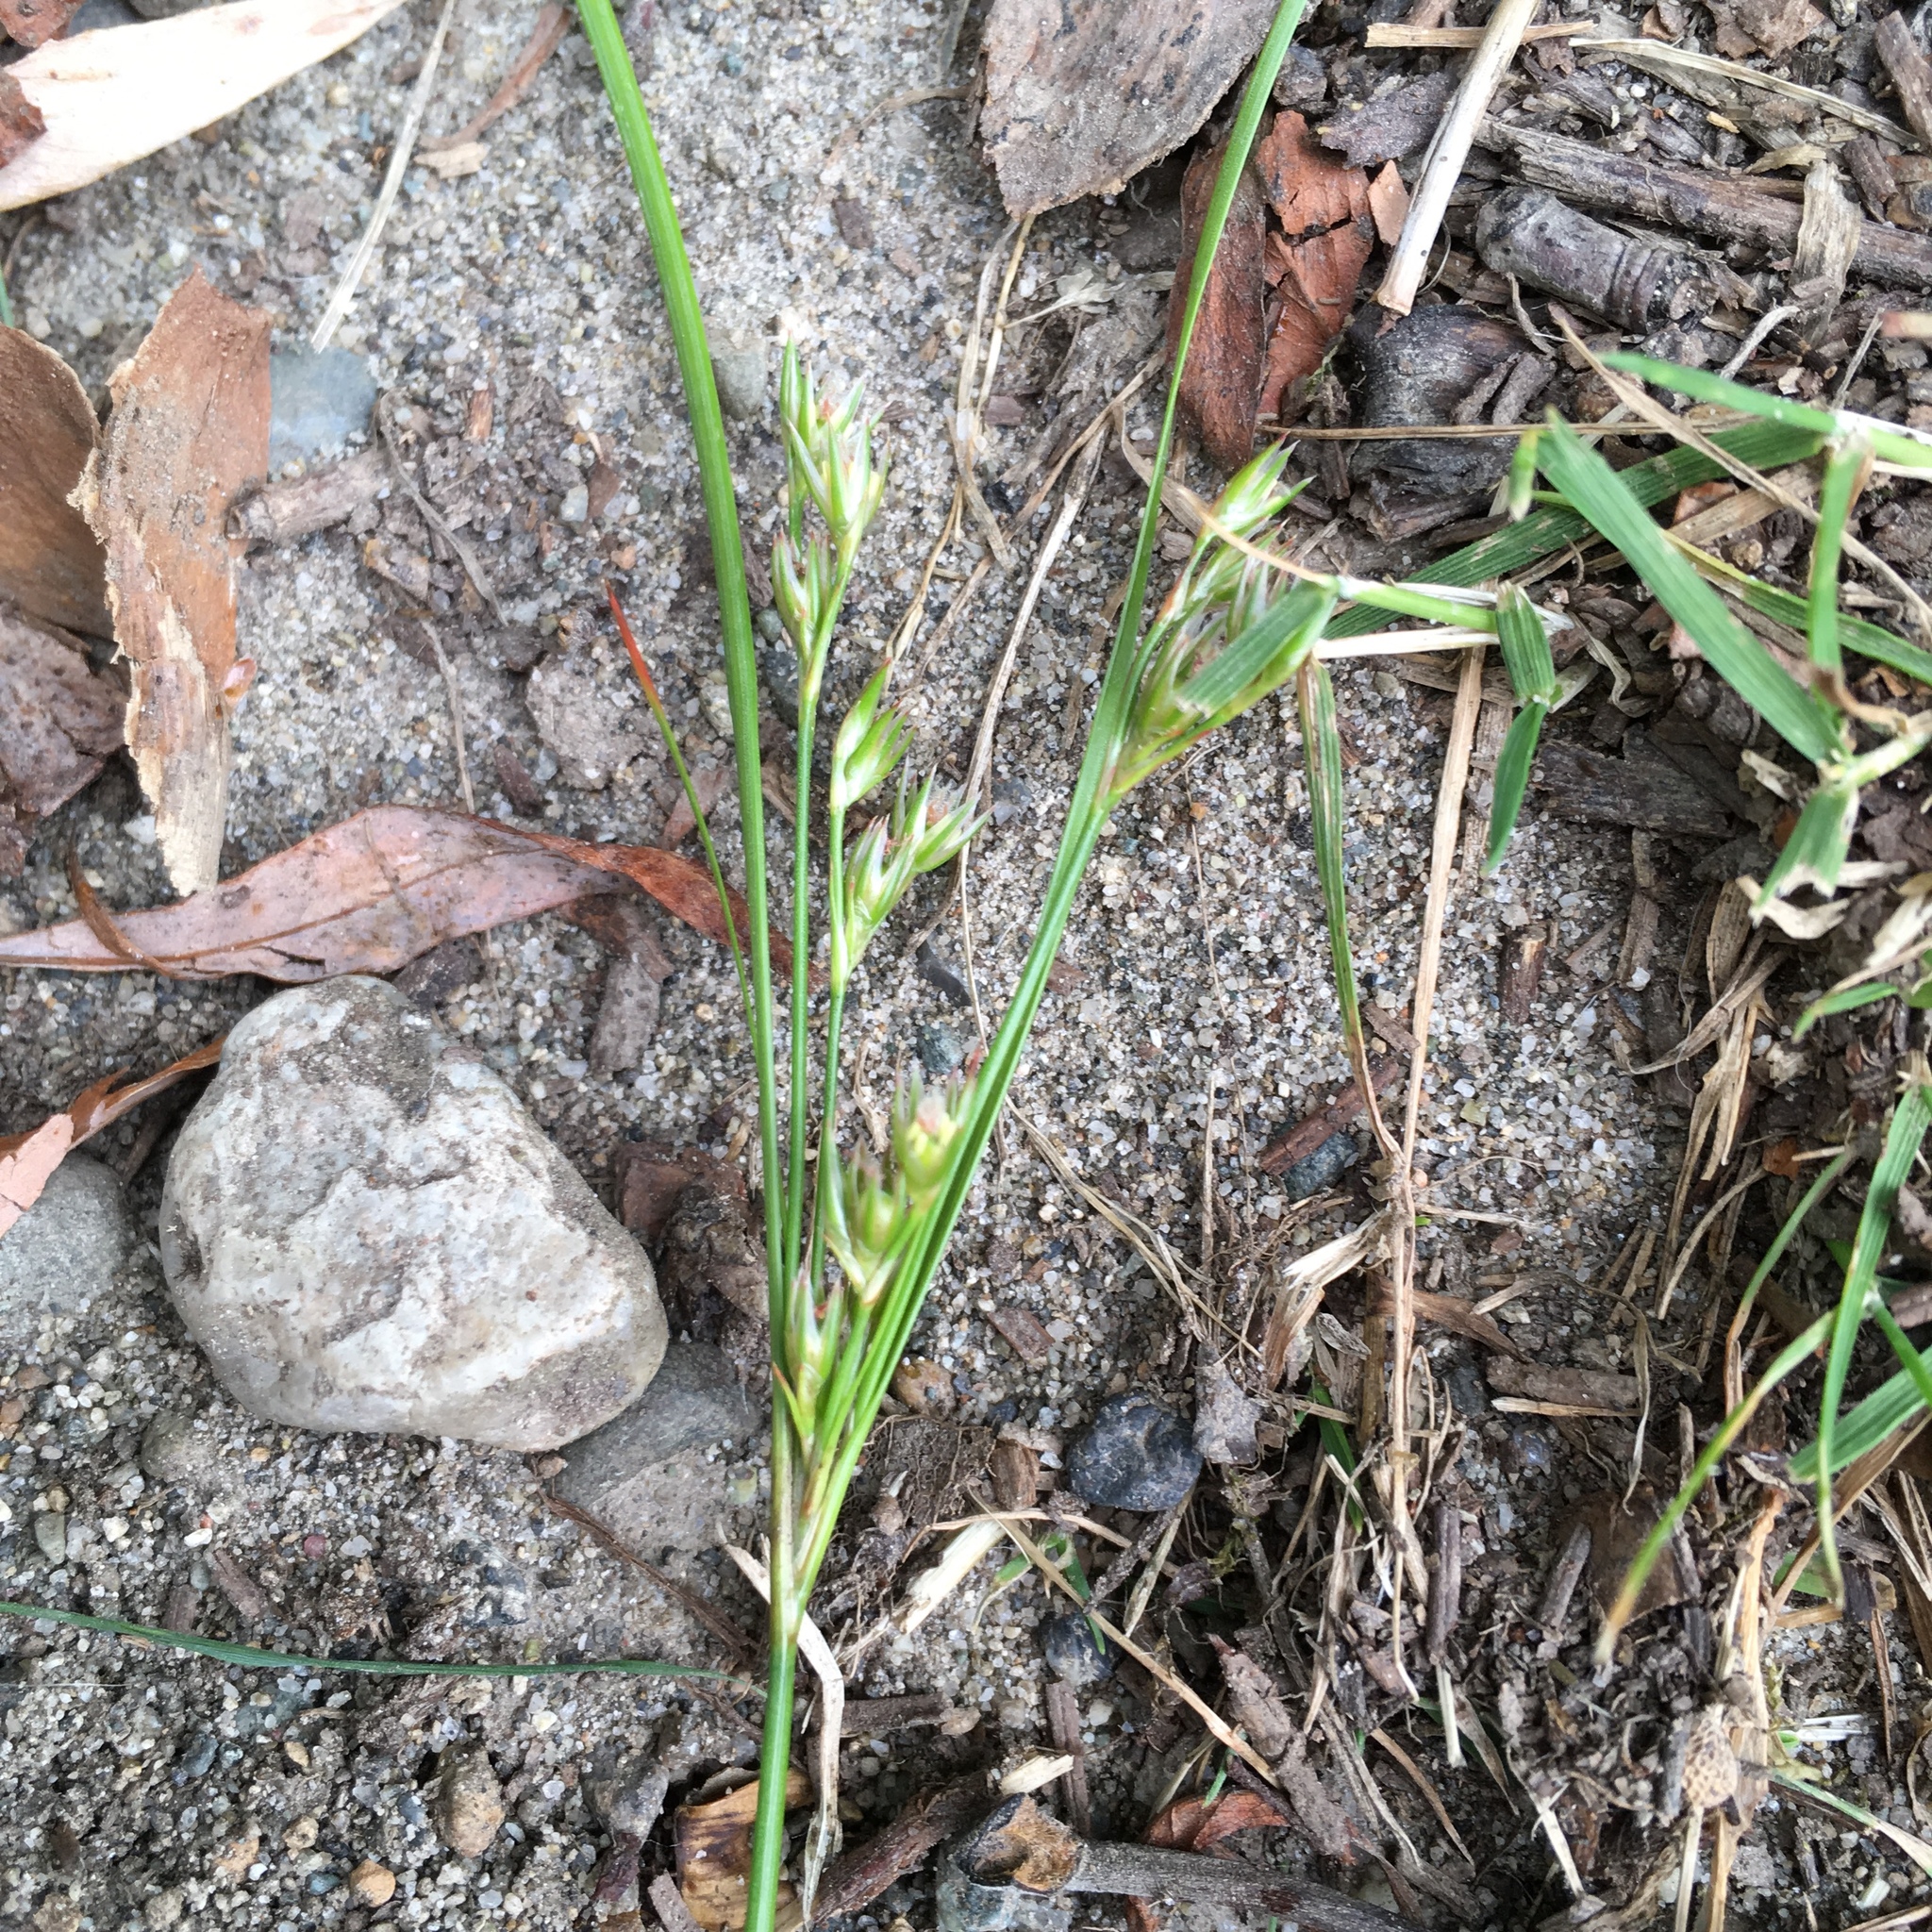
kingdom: Plantae
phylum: Tracheophyta
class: Liliopsida
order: Poales
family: Juncaceae
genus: Juncus
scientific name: Juncus tenuis
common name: Slender rush
